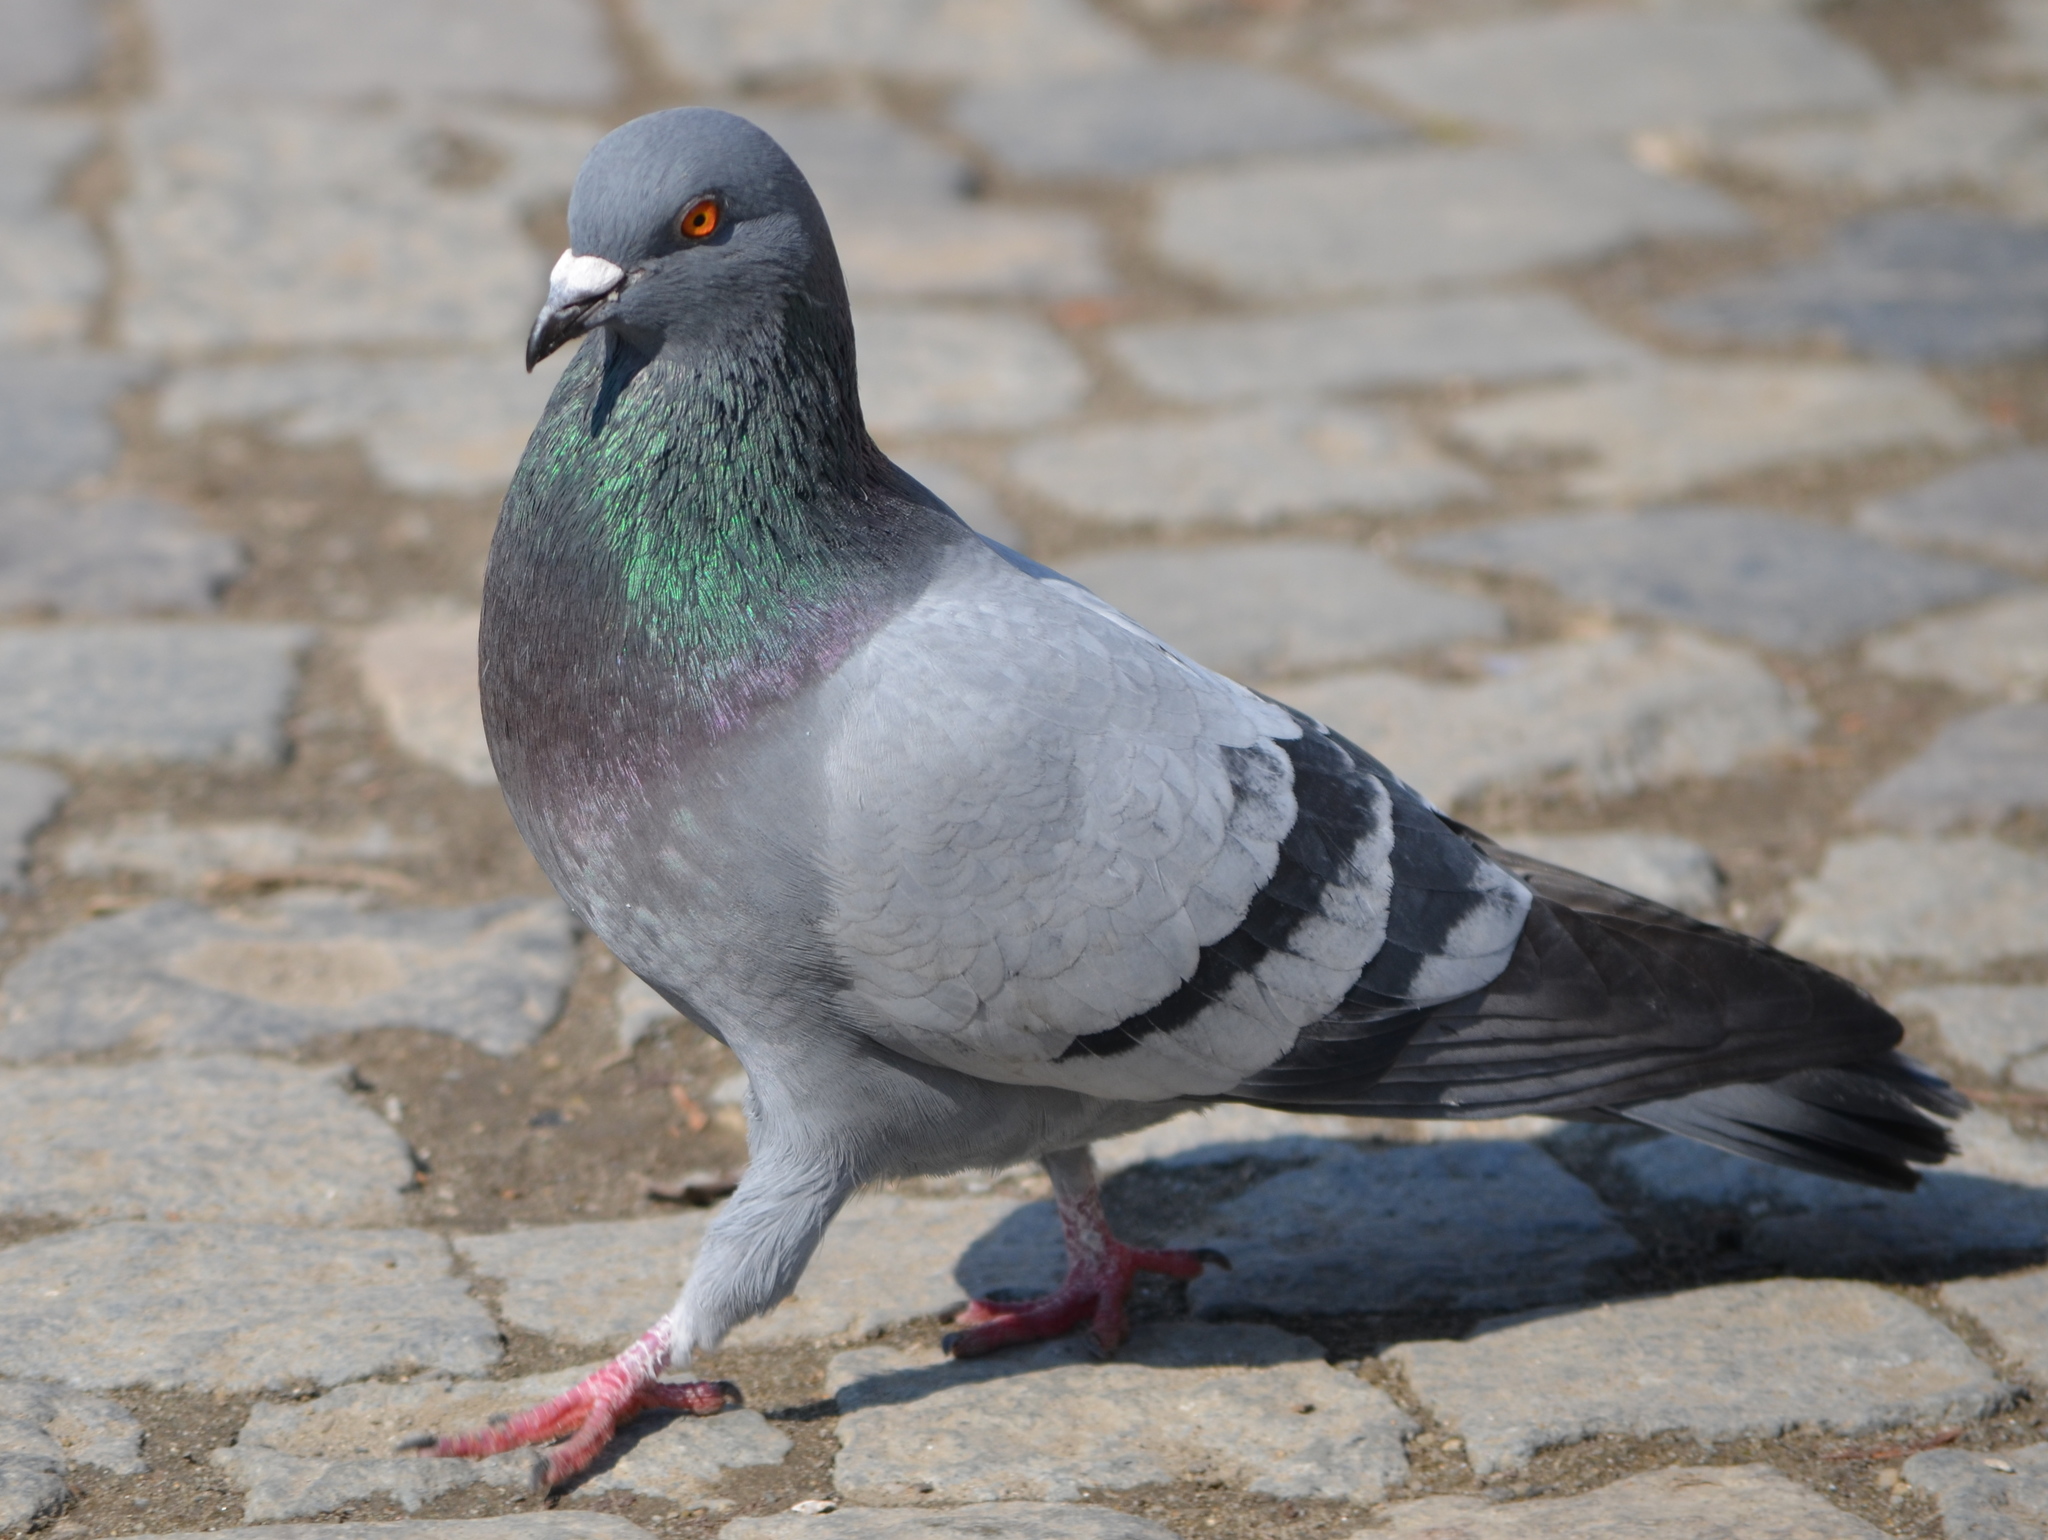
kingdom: Animalia
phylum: Chordata
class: Aves
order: Columbiformes
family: Columbidae
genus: Columba
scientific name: Columba livia
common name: Rock pigeon
